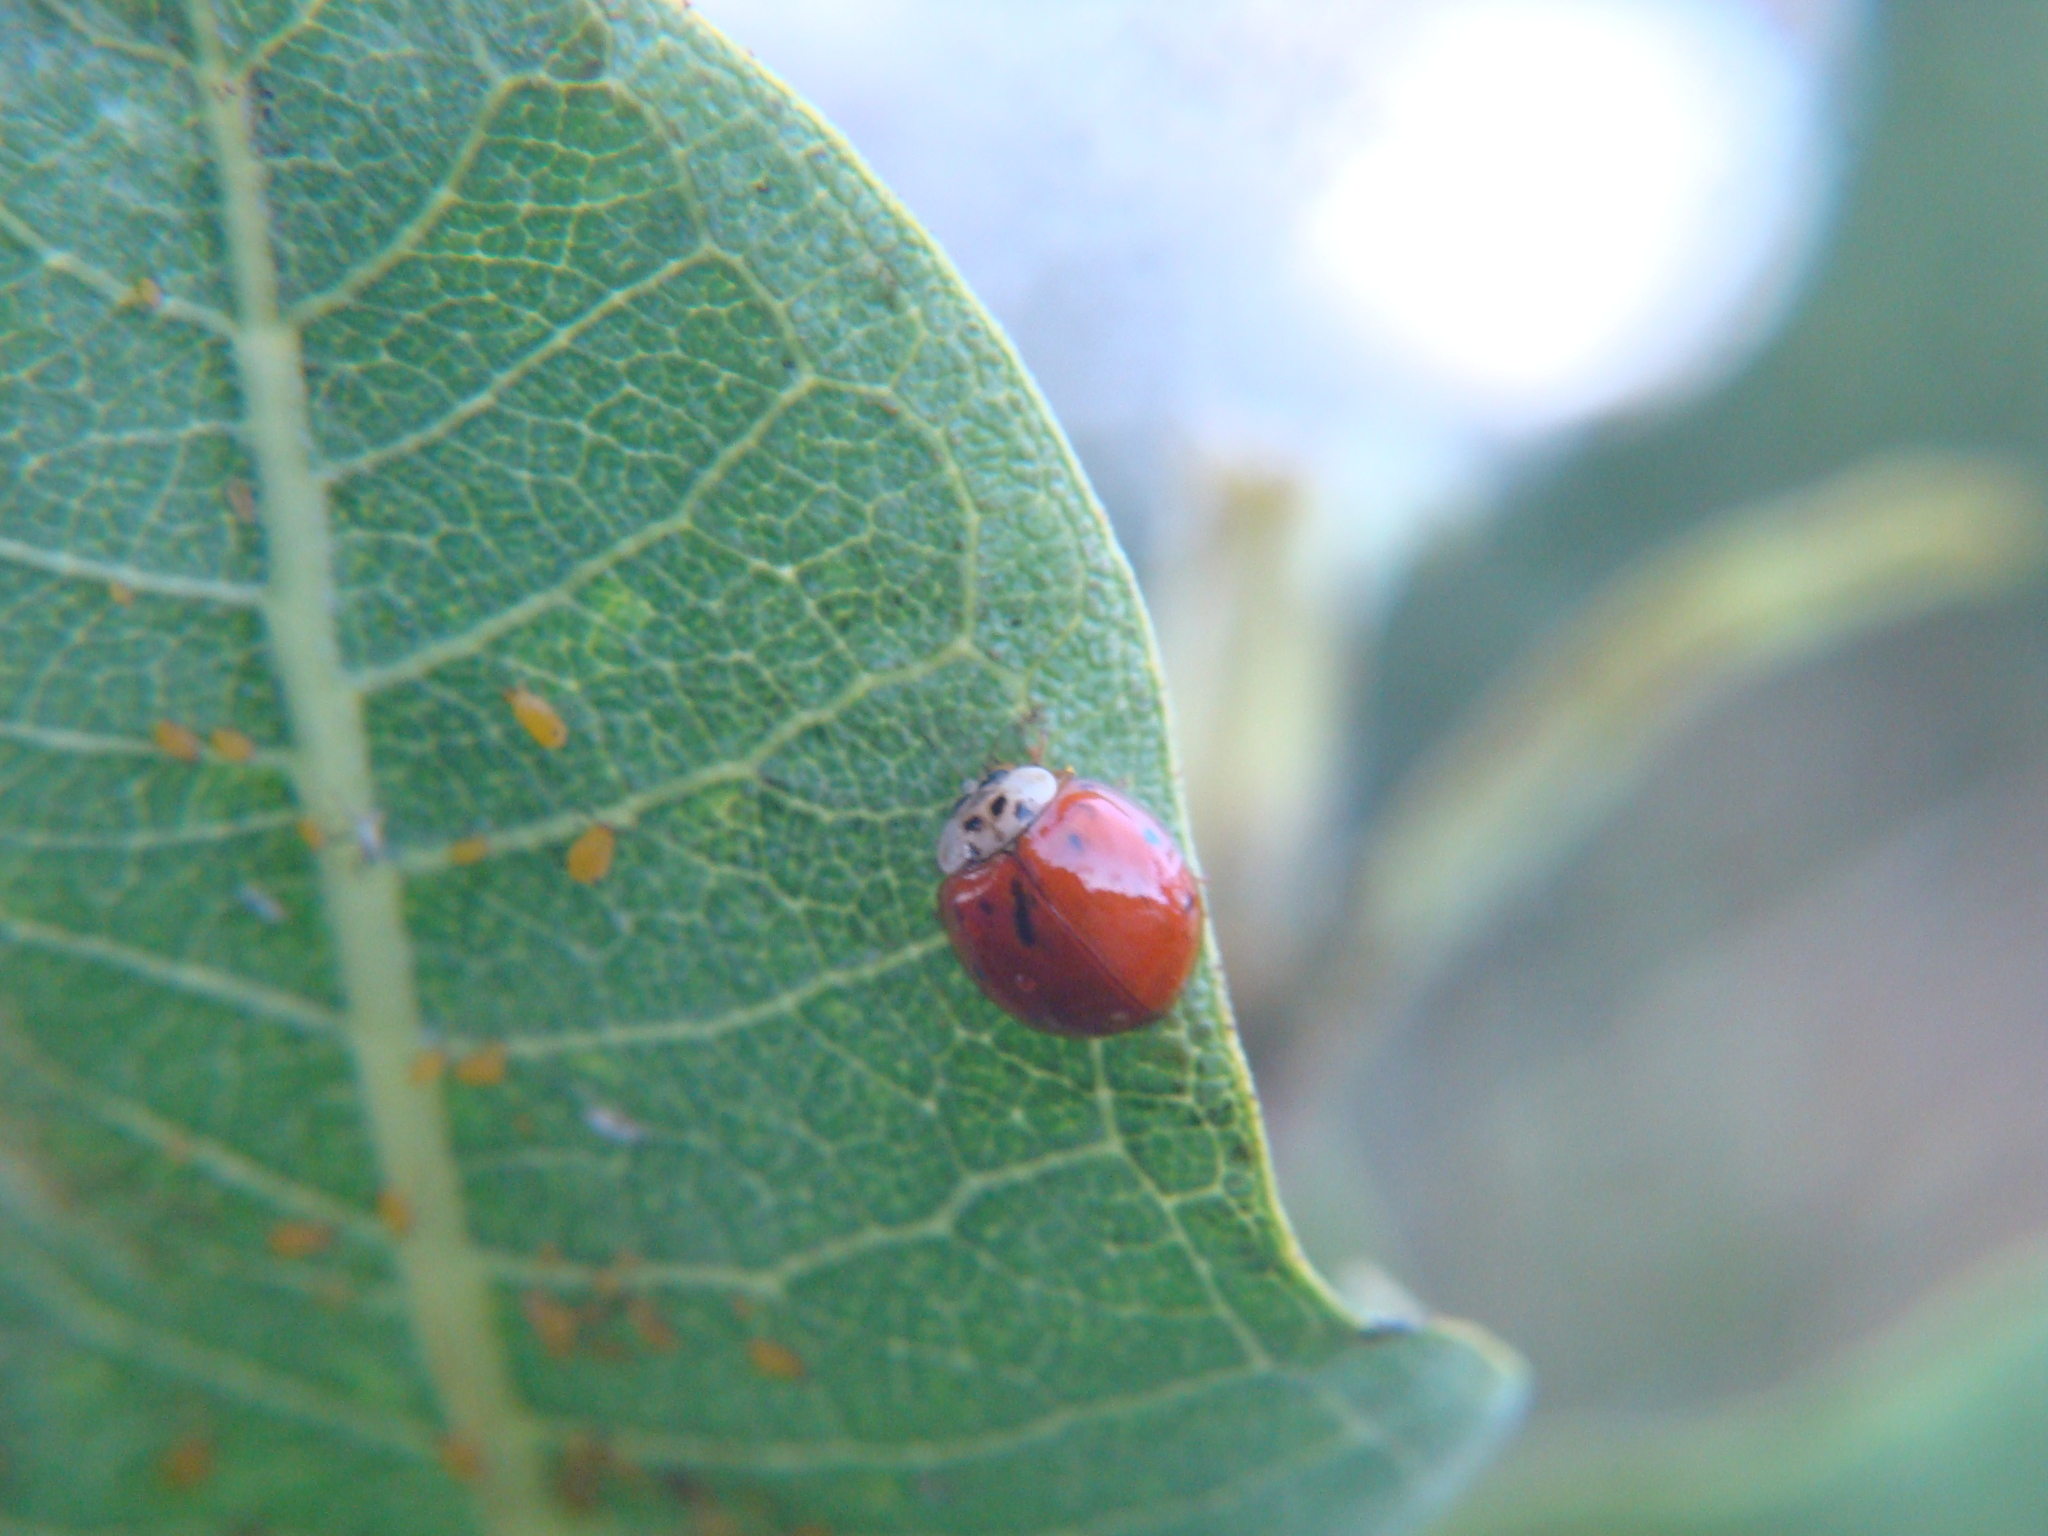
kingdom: Animalia
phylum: Arthropoda
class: Insecta
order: Coleoptera
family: Coccinellidae
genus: Harmonia
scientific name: Harmonia axyridis
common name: Harlequin ladybird
